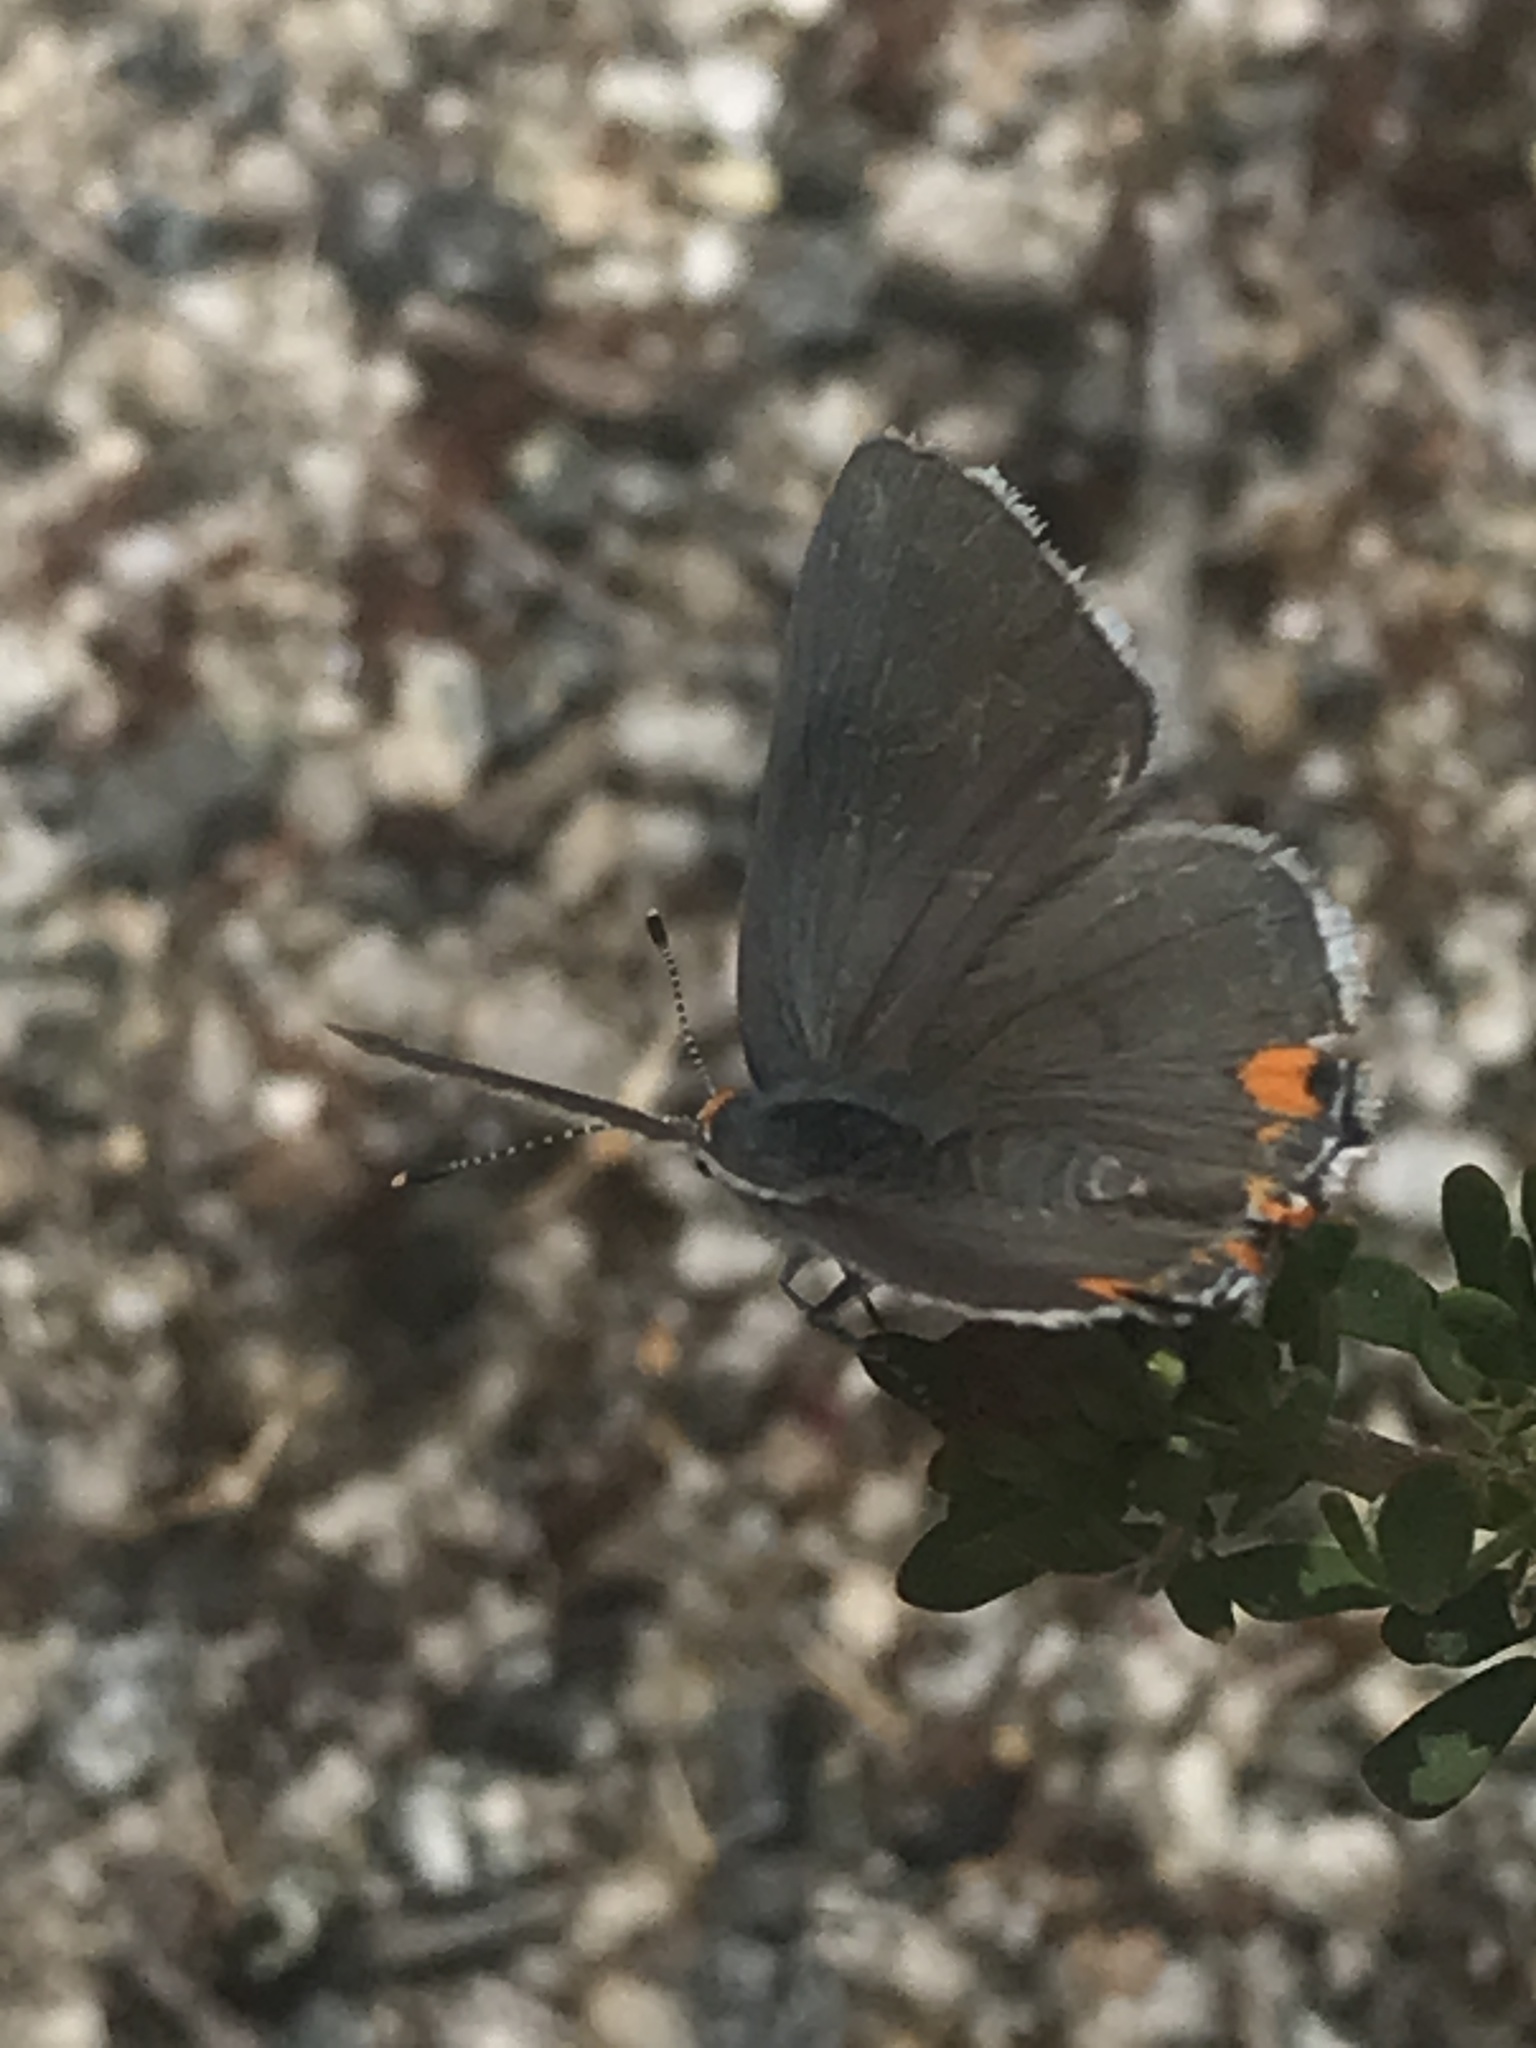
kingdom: Animalia
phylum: Arthropoda
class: Insecta
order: Lepidoptera
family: Lycaenidae
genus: Strymon
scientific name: Strymon melinus
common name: Gray hairstreak
